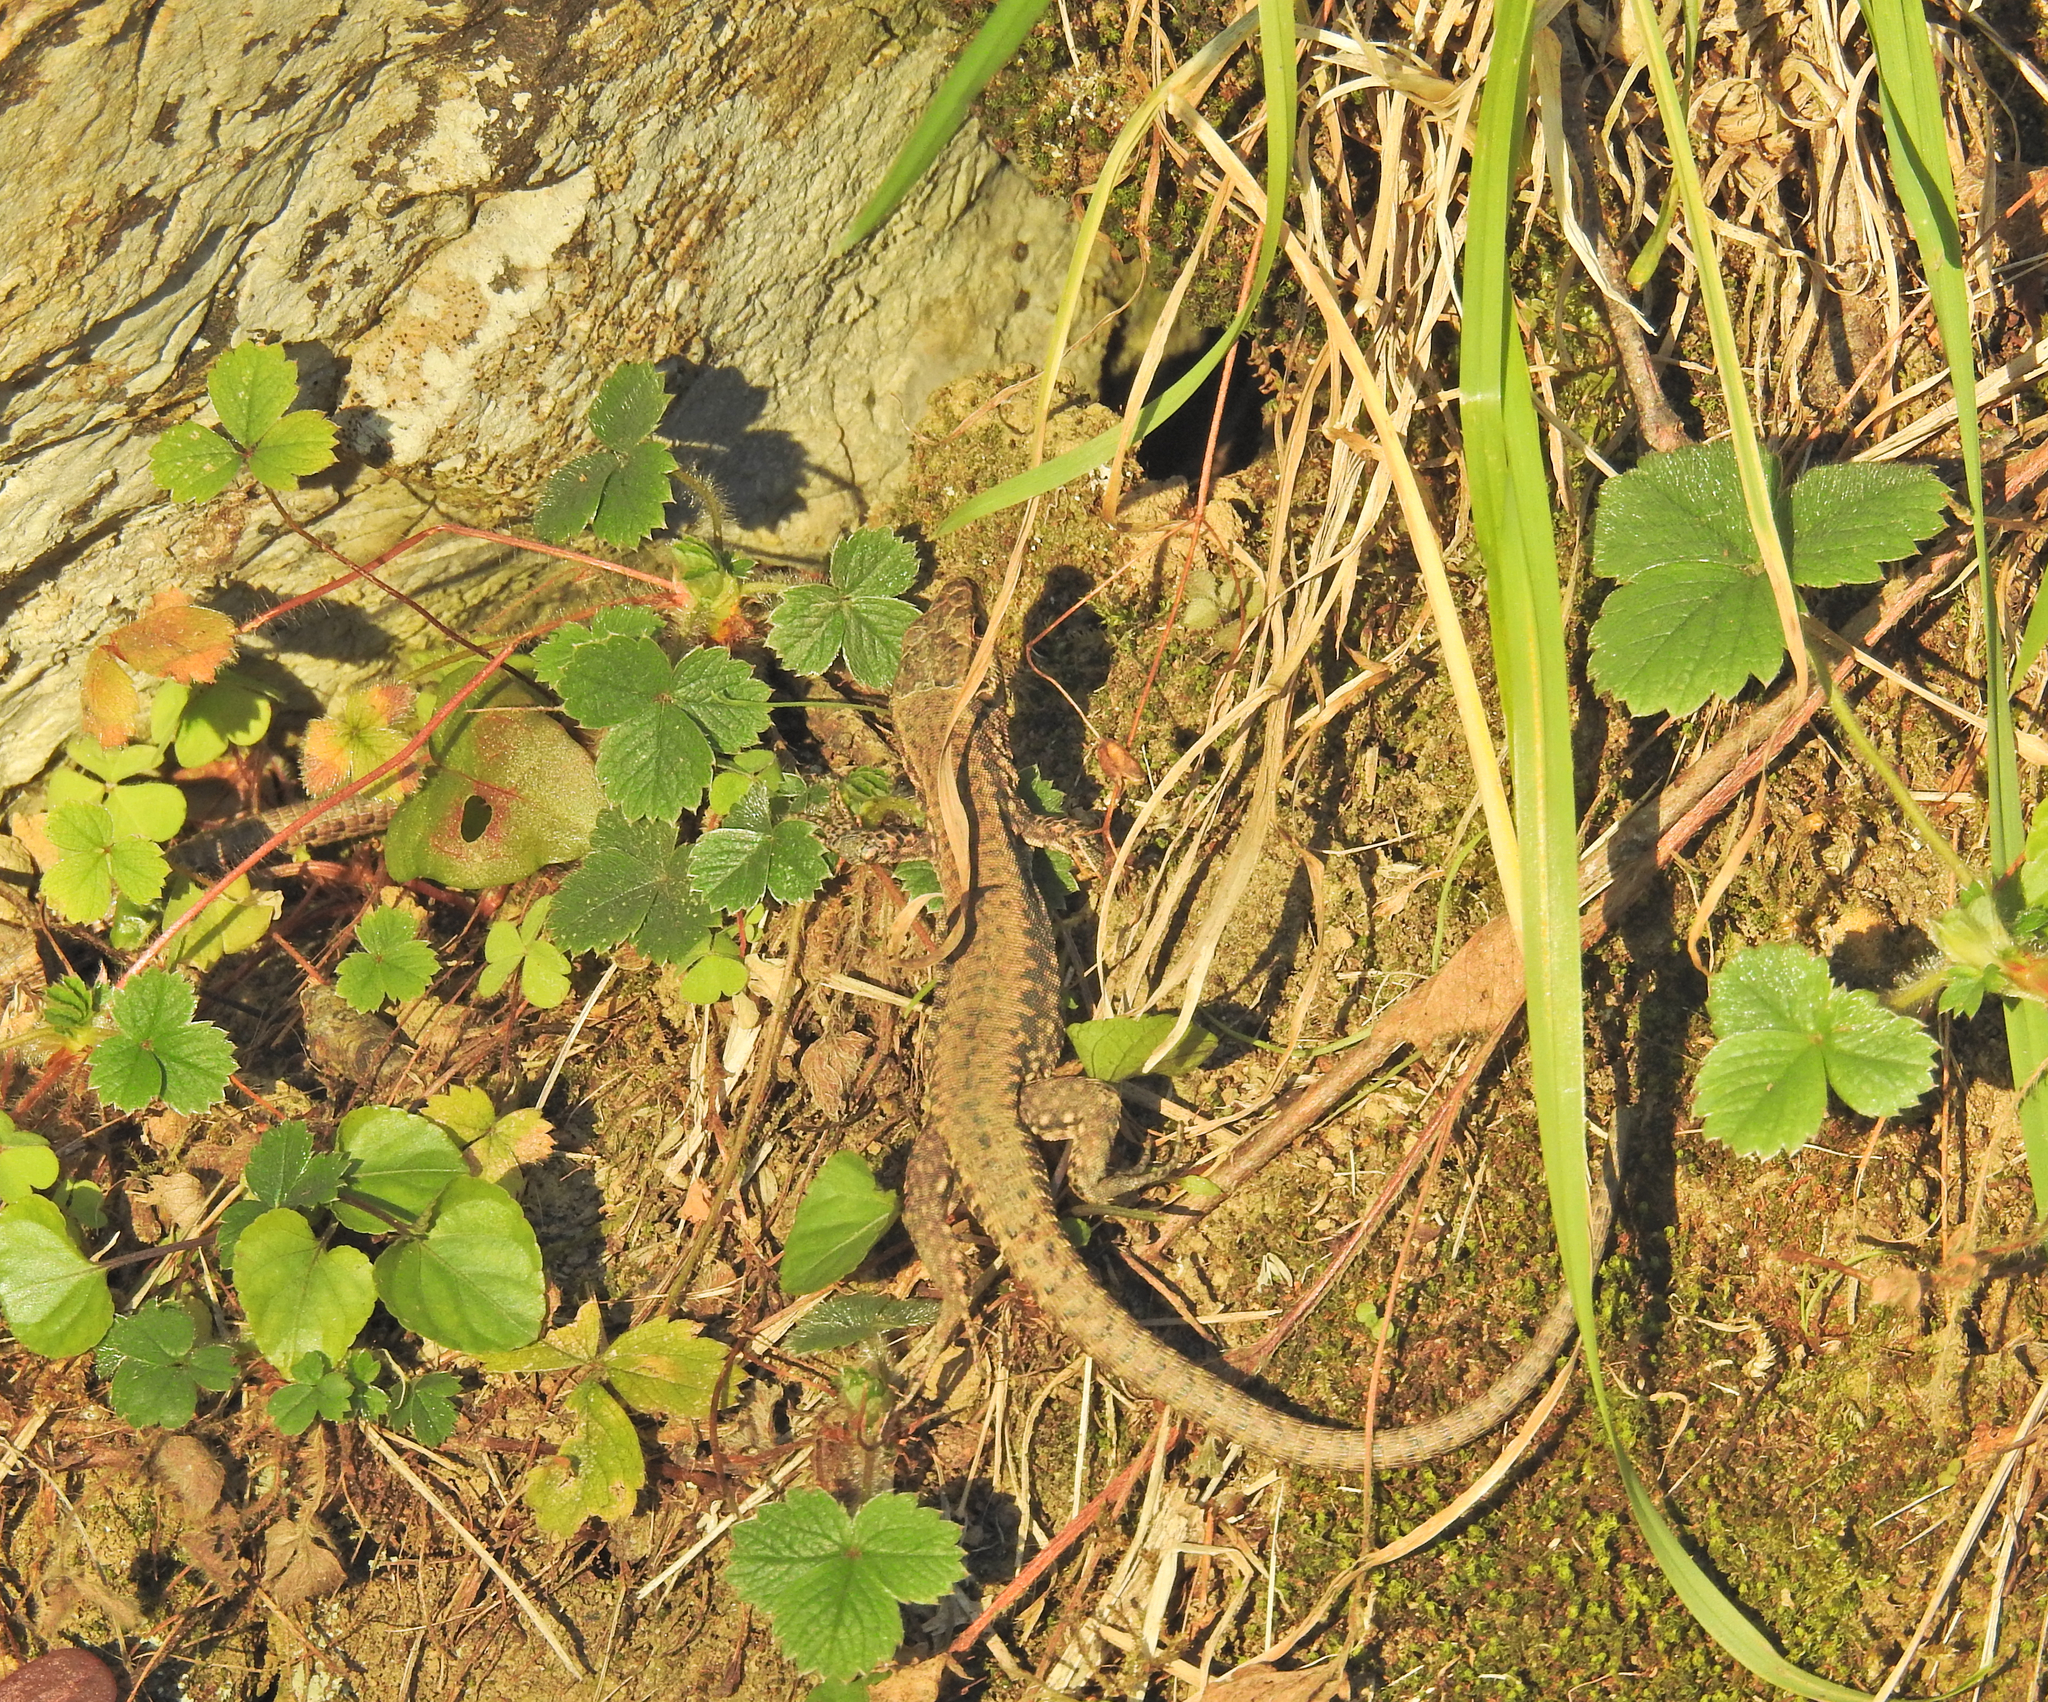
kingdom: Animalia
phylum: Chordata
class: Squamata
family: Lacertidae
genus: Podarcis
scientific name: Podarcis muralis
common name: Common wall lizard
